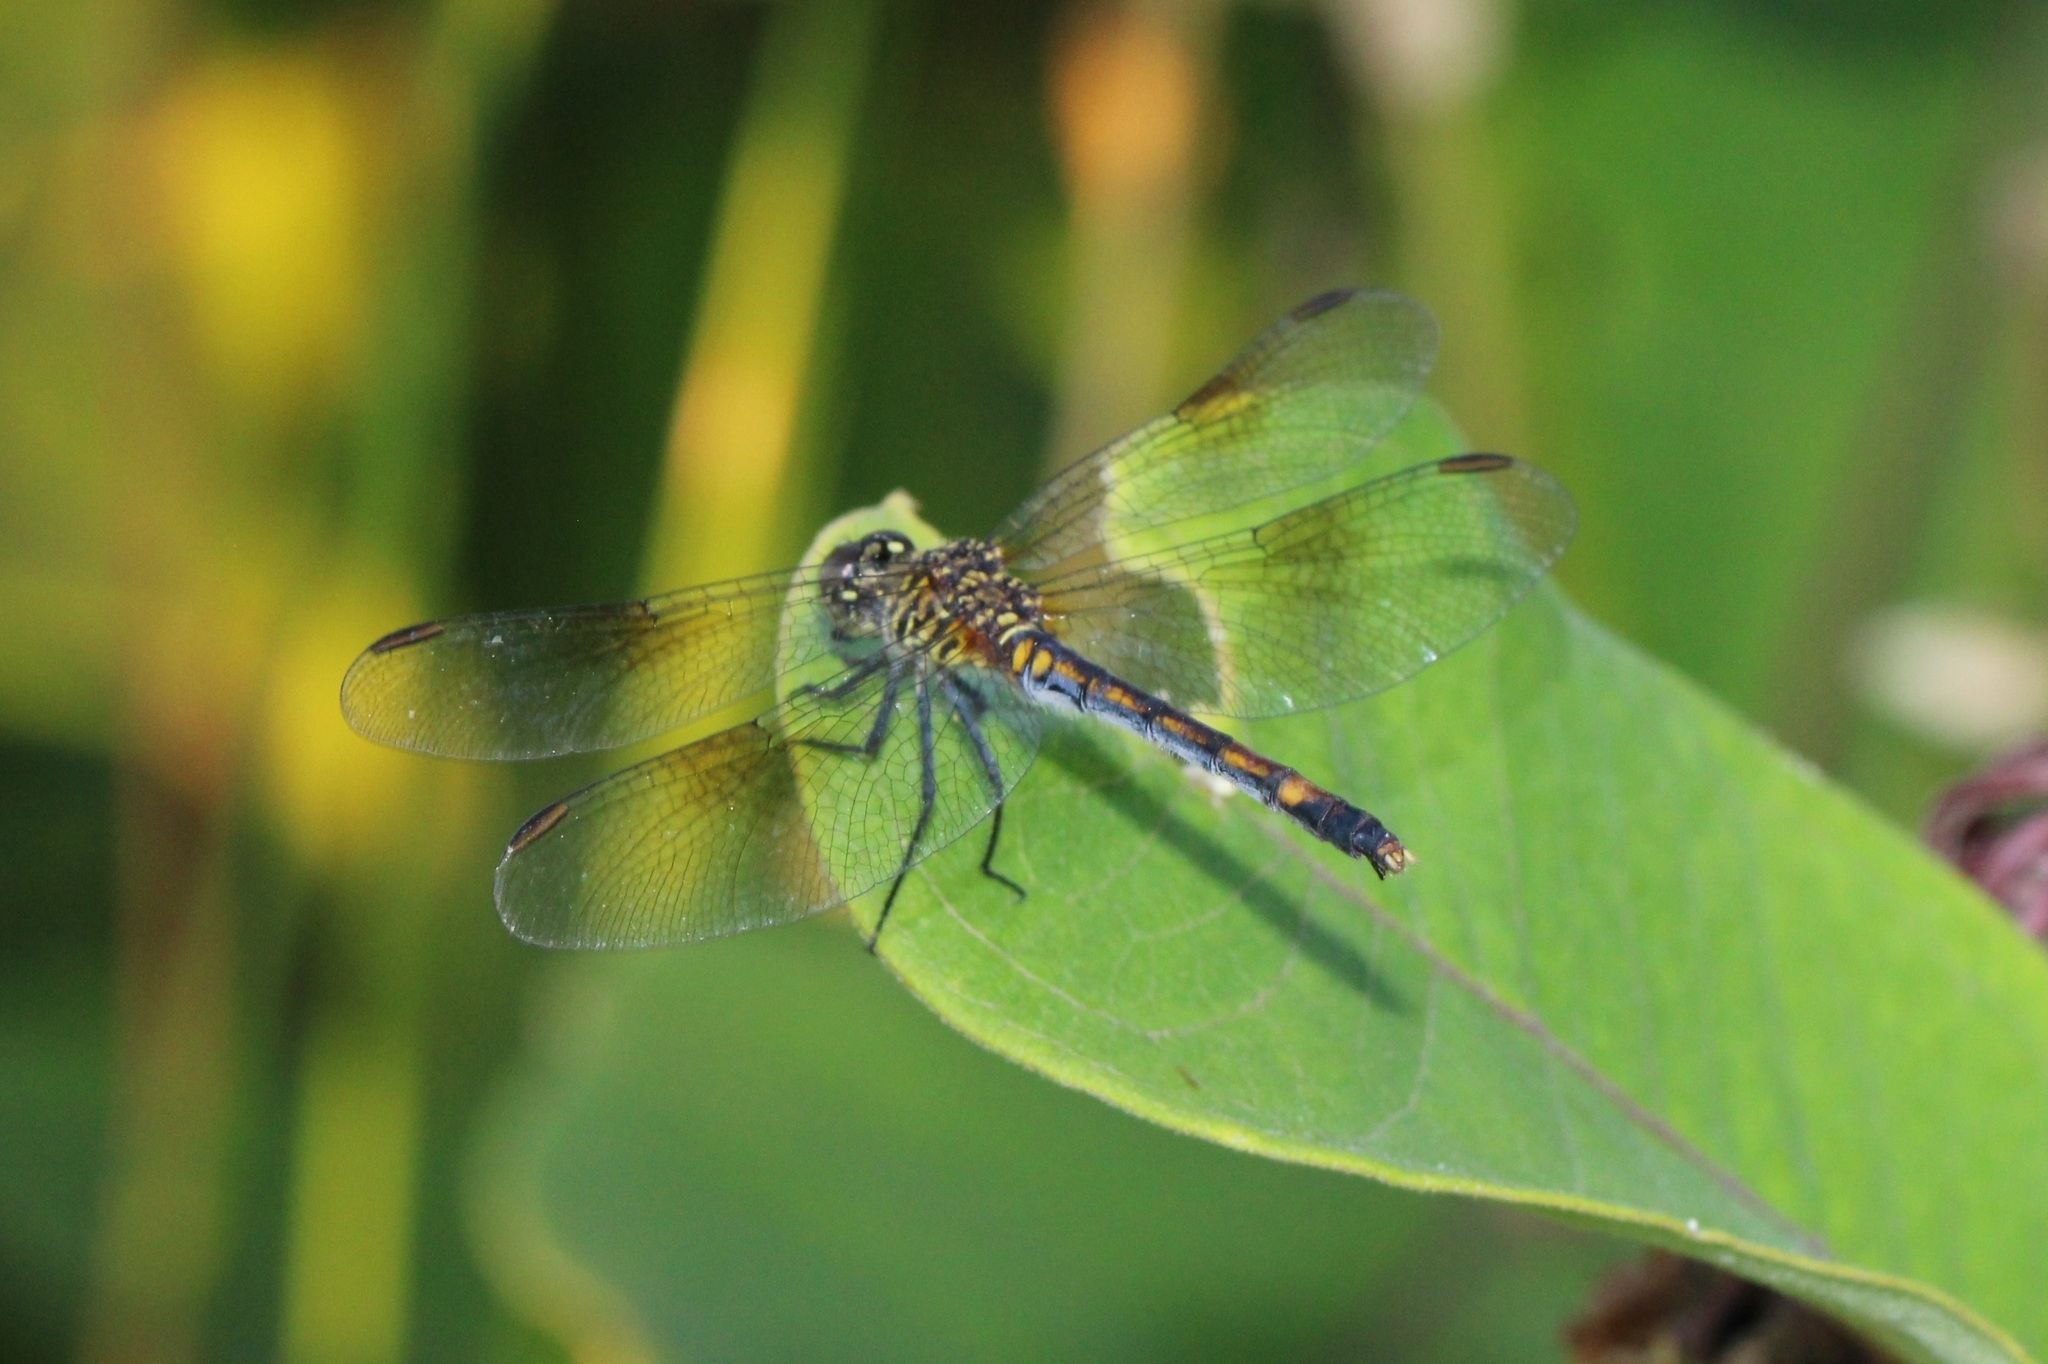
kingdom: Animalia
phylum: Arthropoda
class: Insecta
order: Odonata
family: Libellulidae
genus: Erythrodiplax
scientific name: Erythrodiplax berenice
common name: Seaside dragonlet
